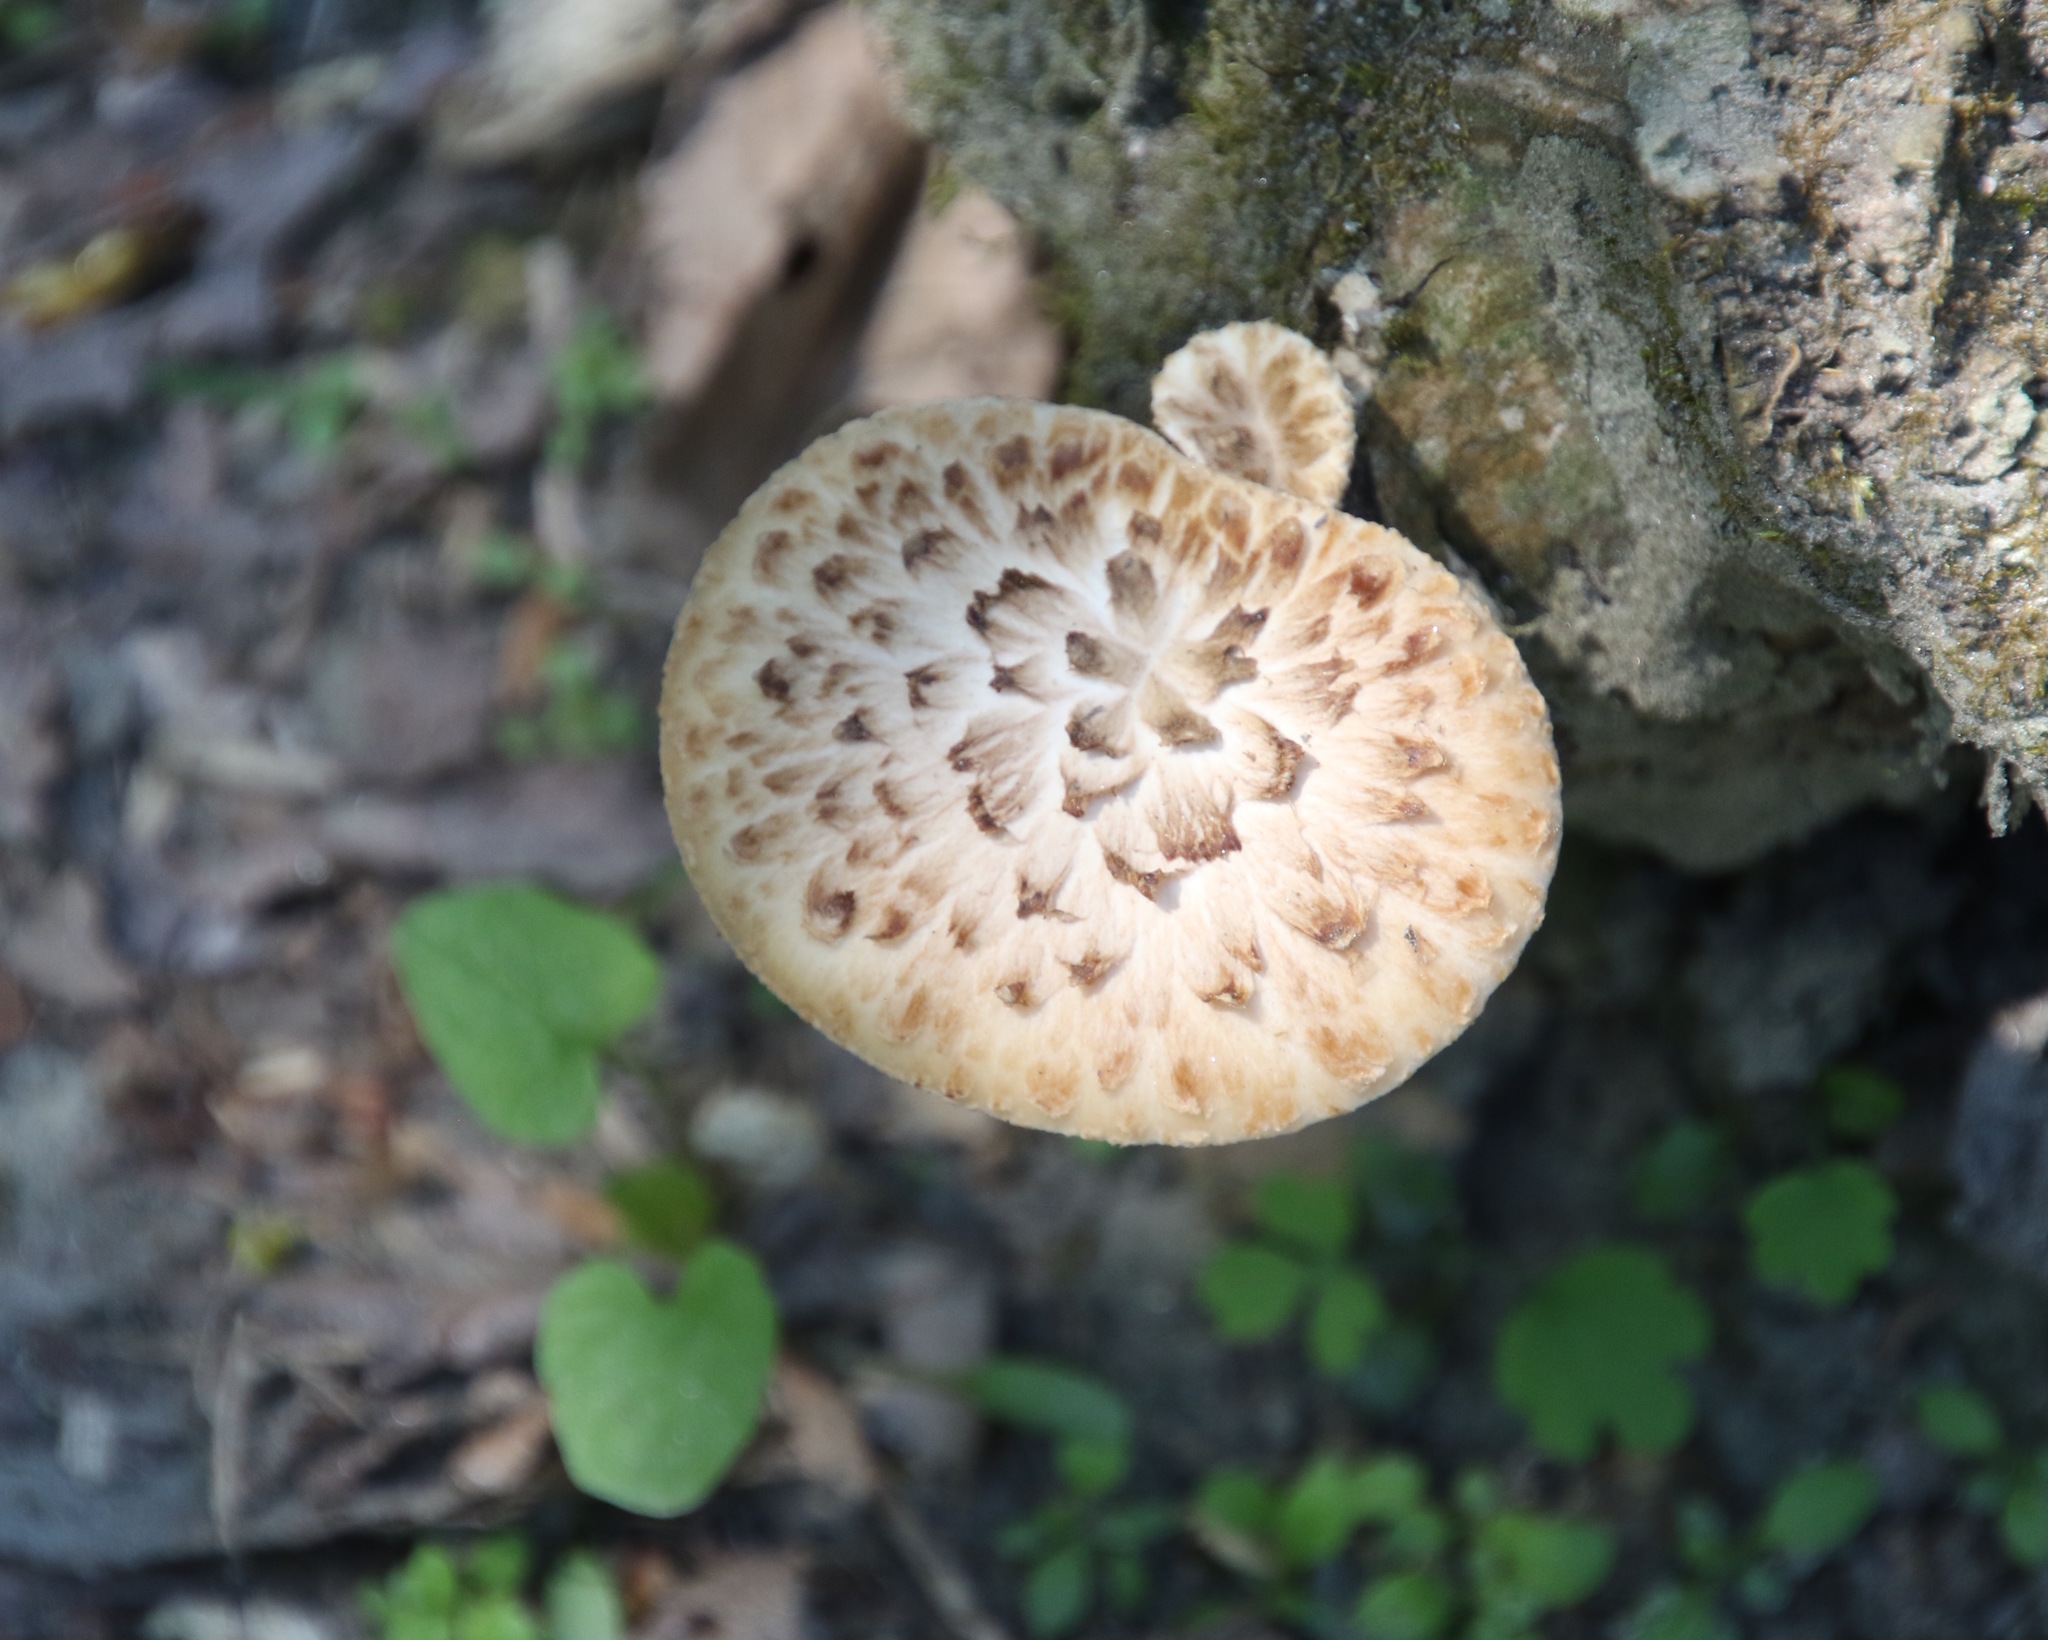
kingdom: Fungi
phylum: Basidiomycota
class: Agaricomycetes
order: Polyporales
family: Polyporaceae
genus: Cerioporus
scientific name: Cerioporus squamosus
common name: Dryad's saddle
